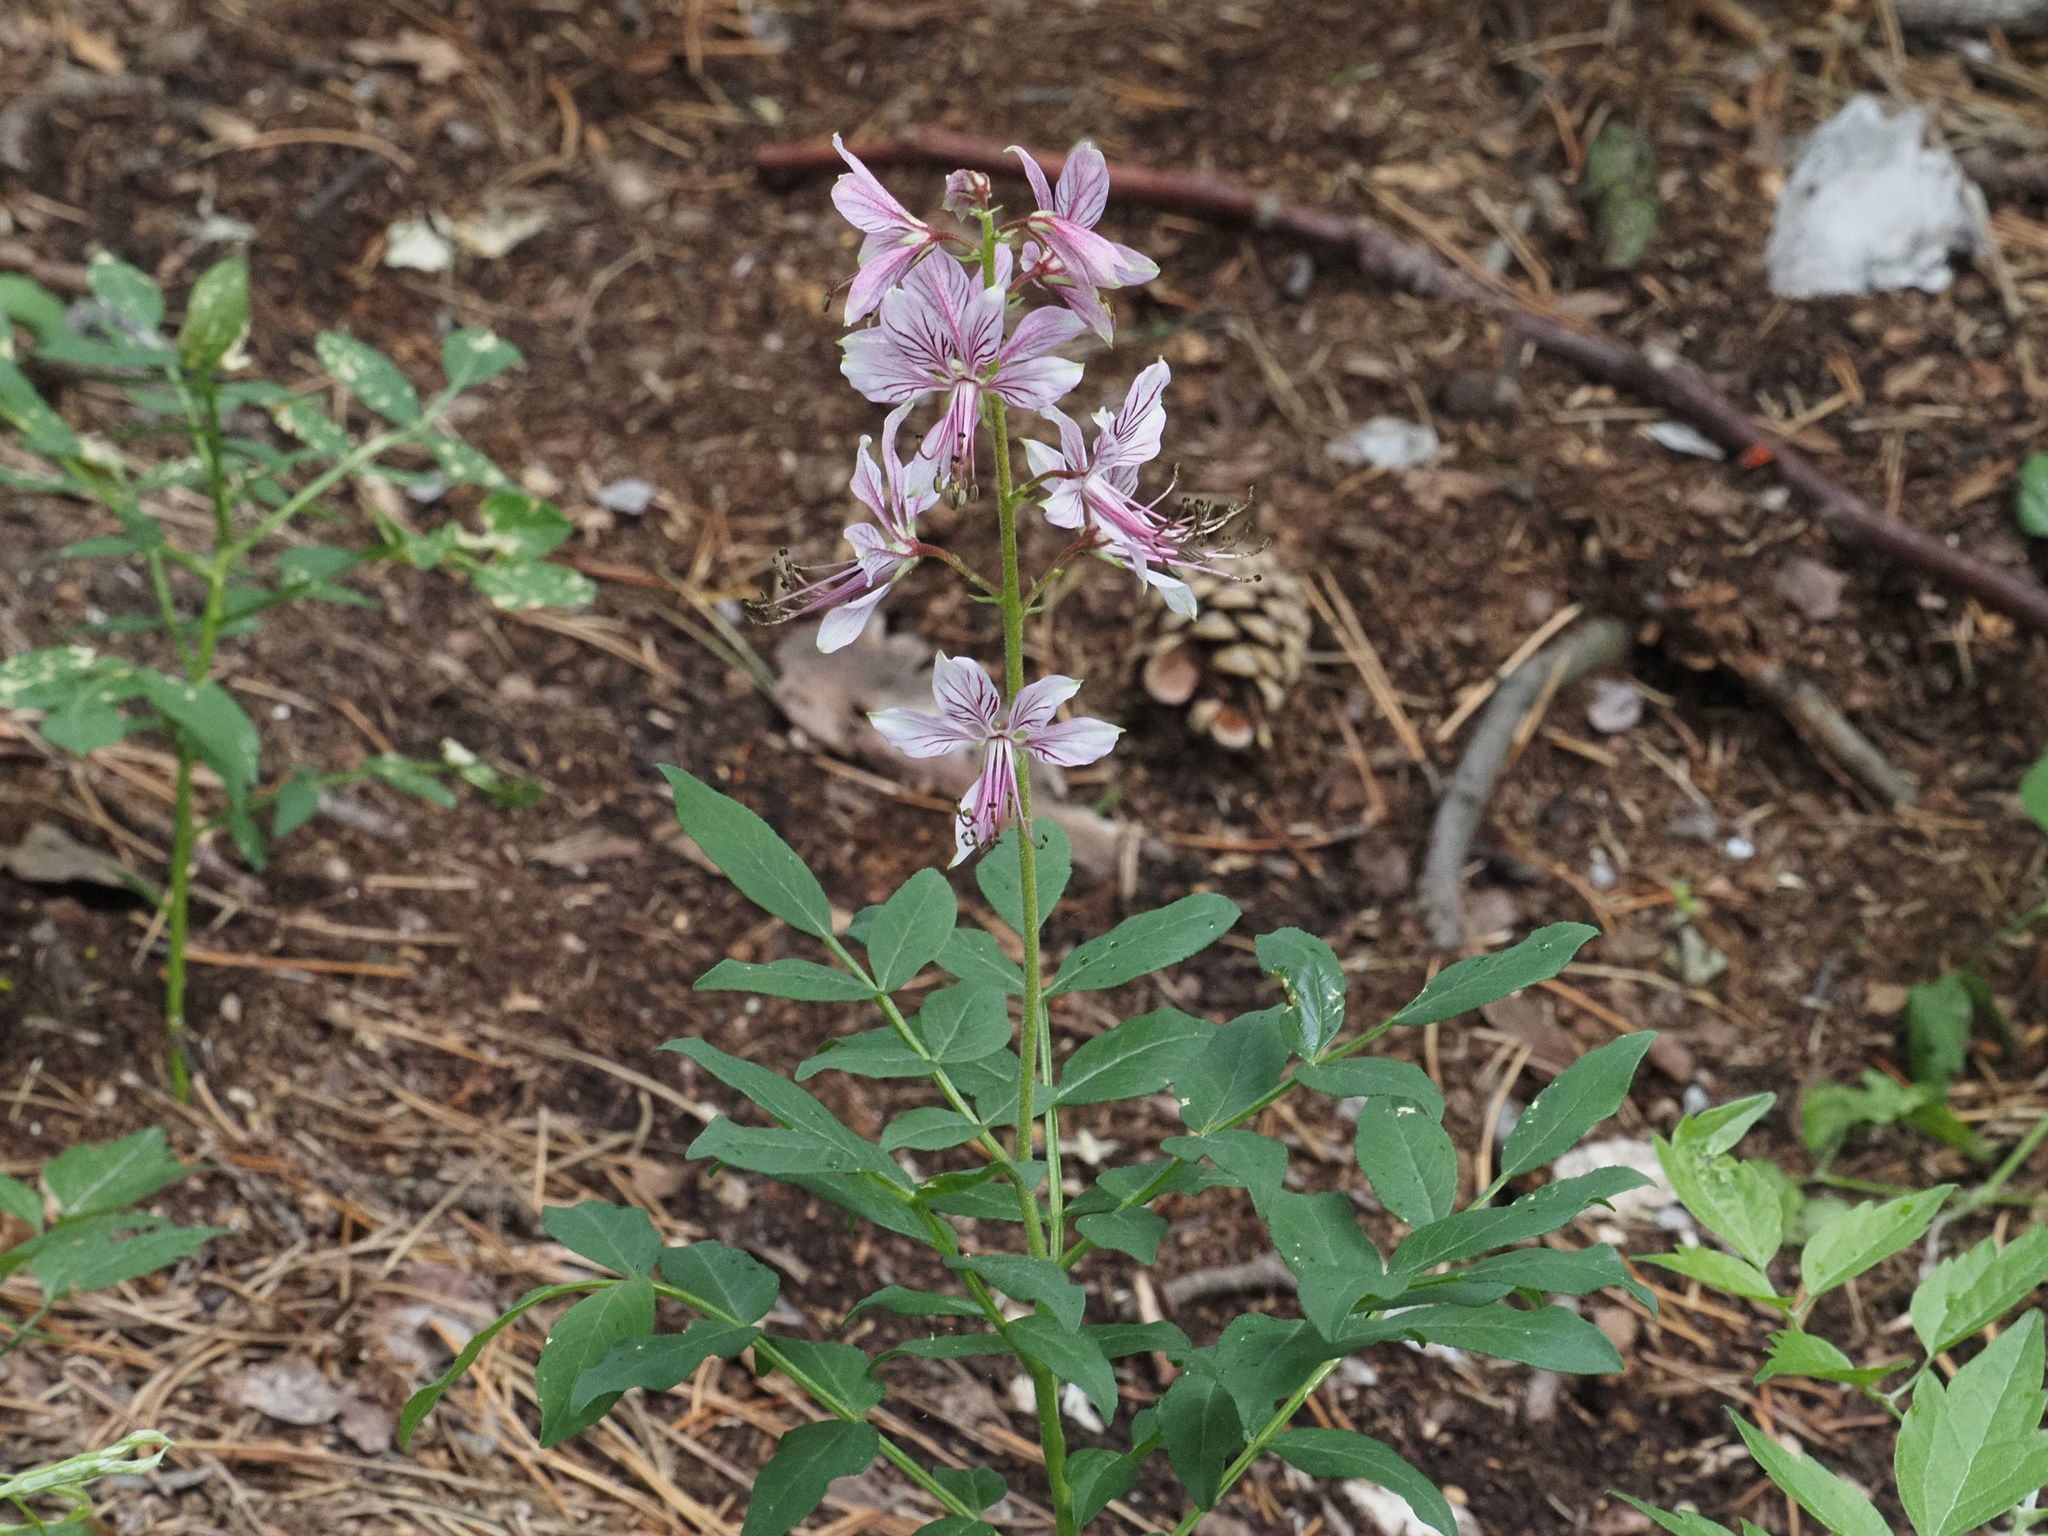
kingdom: Plantae
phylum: Tracheophyta
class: Magnoliopsida
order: Sapindales
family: Rutaceae
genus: Dictamnus
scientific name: Dictamnus albus
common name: Gasplant
